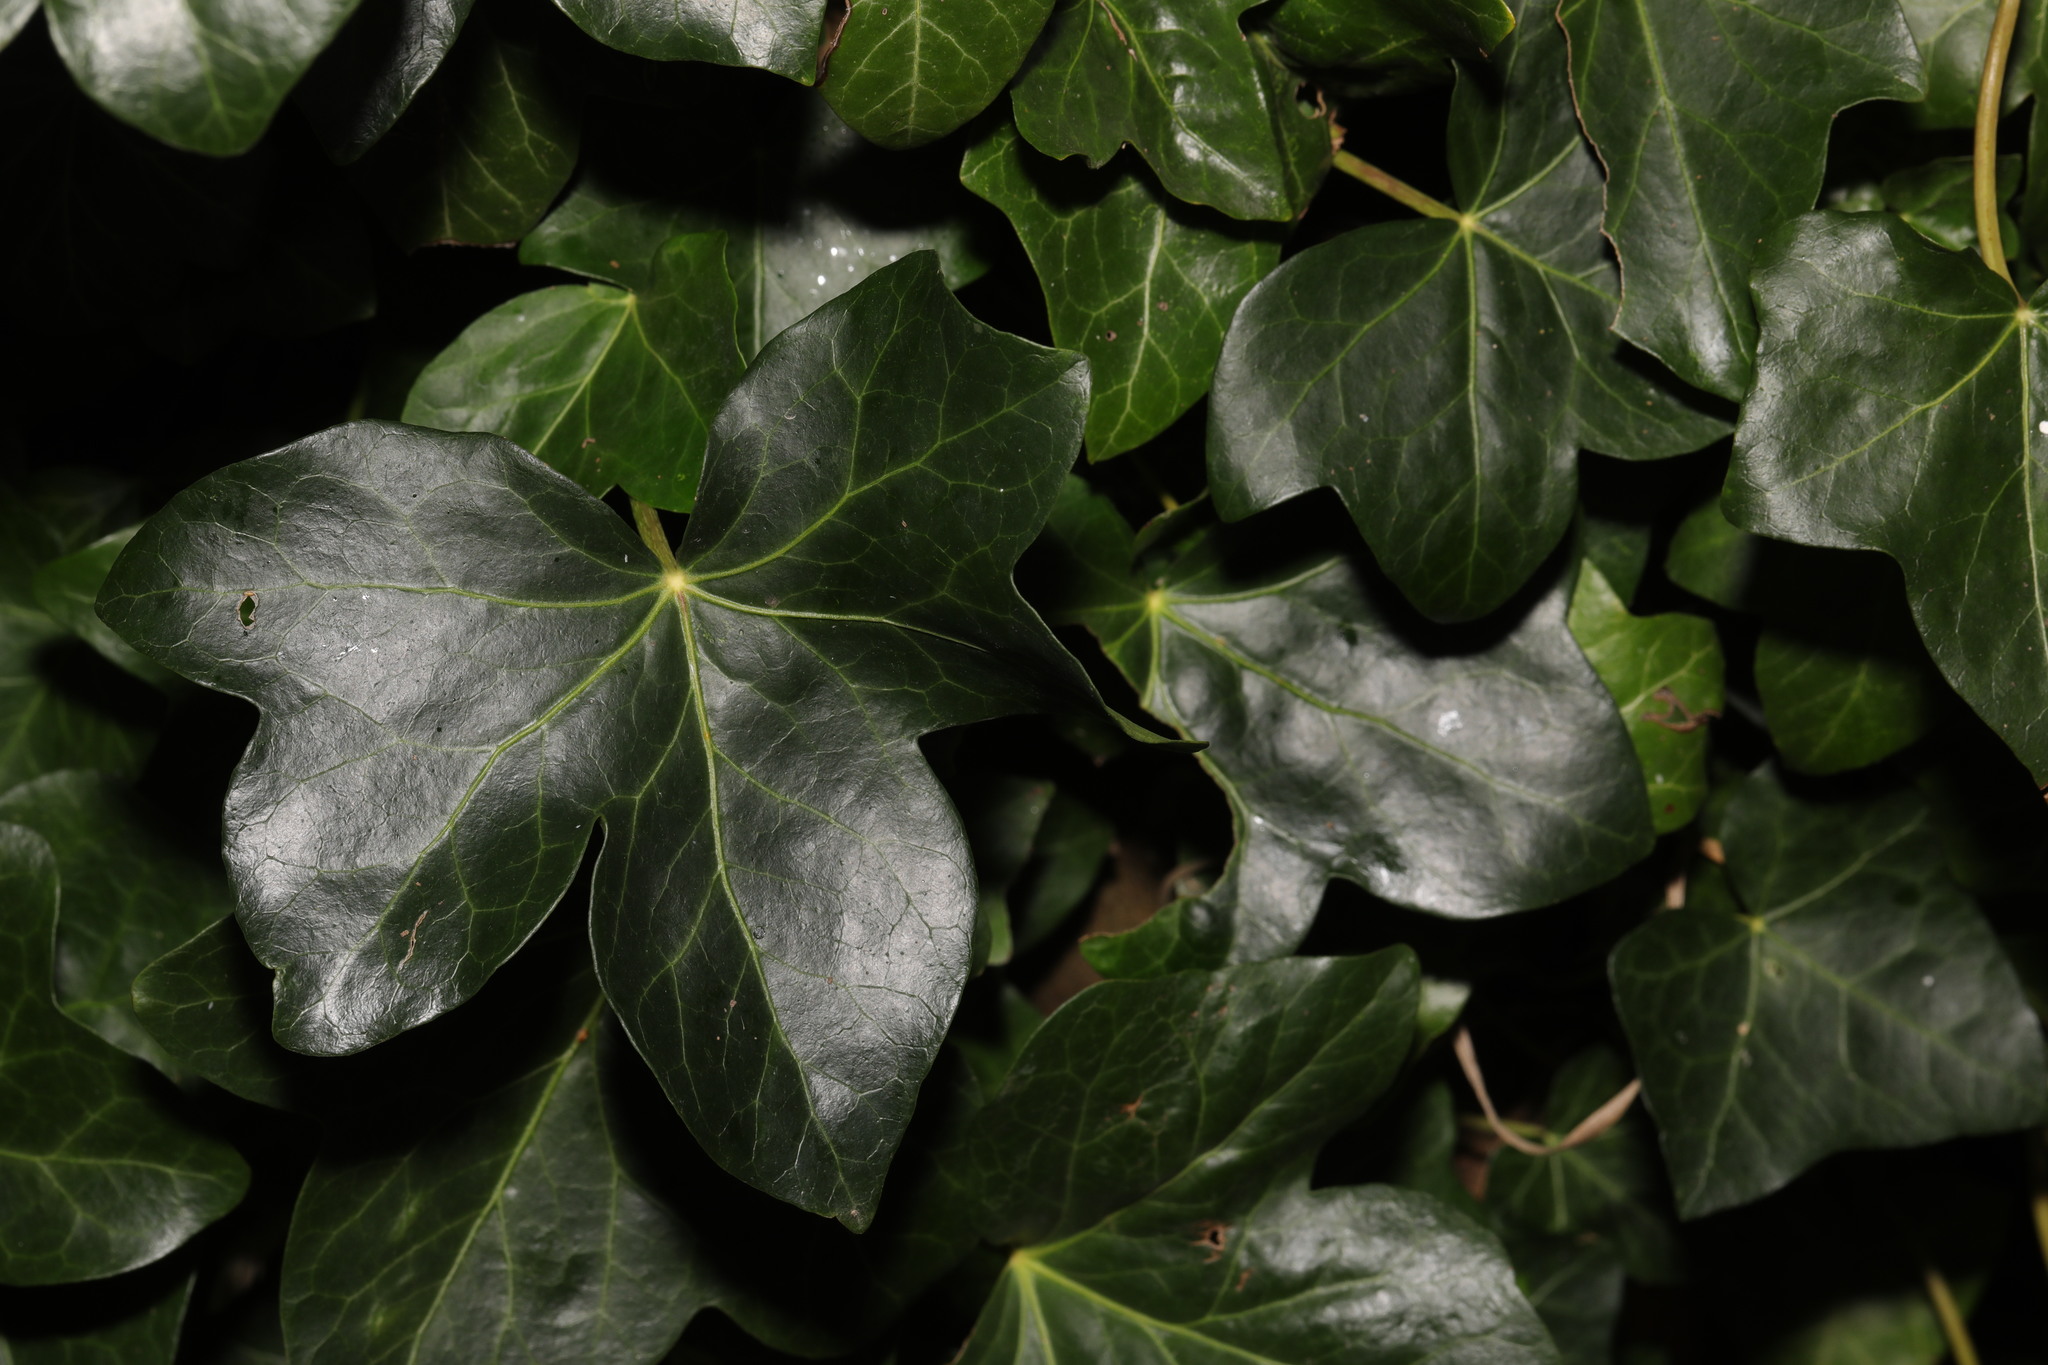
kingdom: Plantae
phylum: Tracheophyta
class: Magnoliopsida
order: Apiales
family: Araliaceae
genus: Hedera
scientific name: Hedera helix
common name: Ivy
